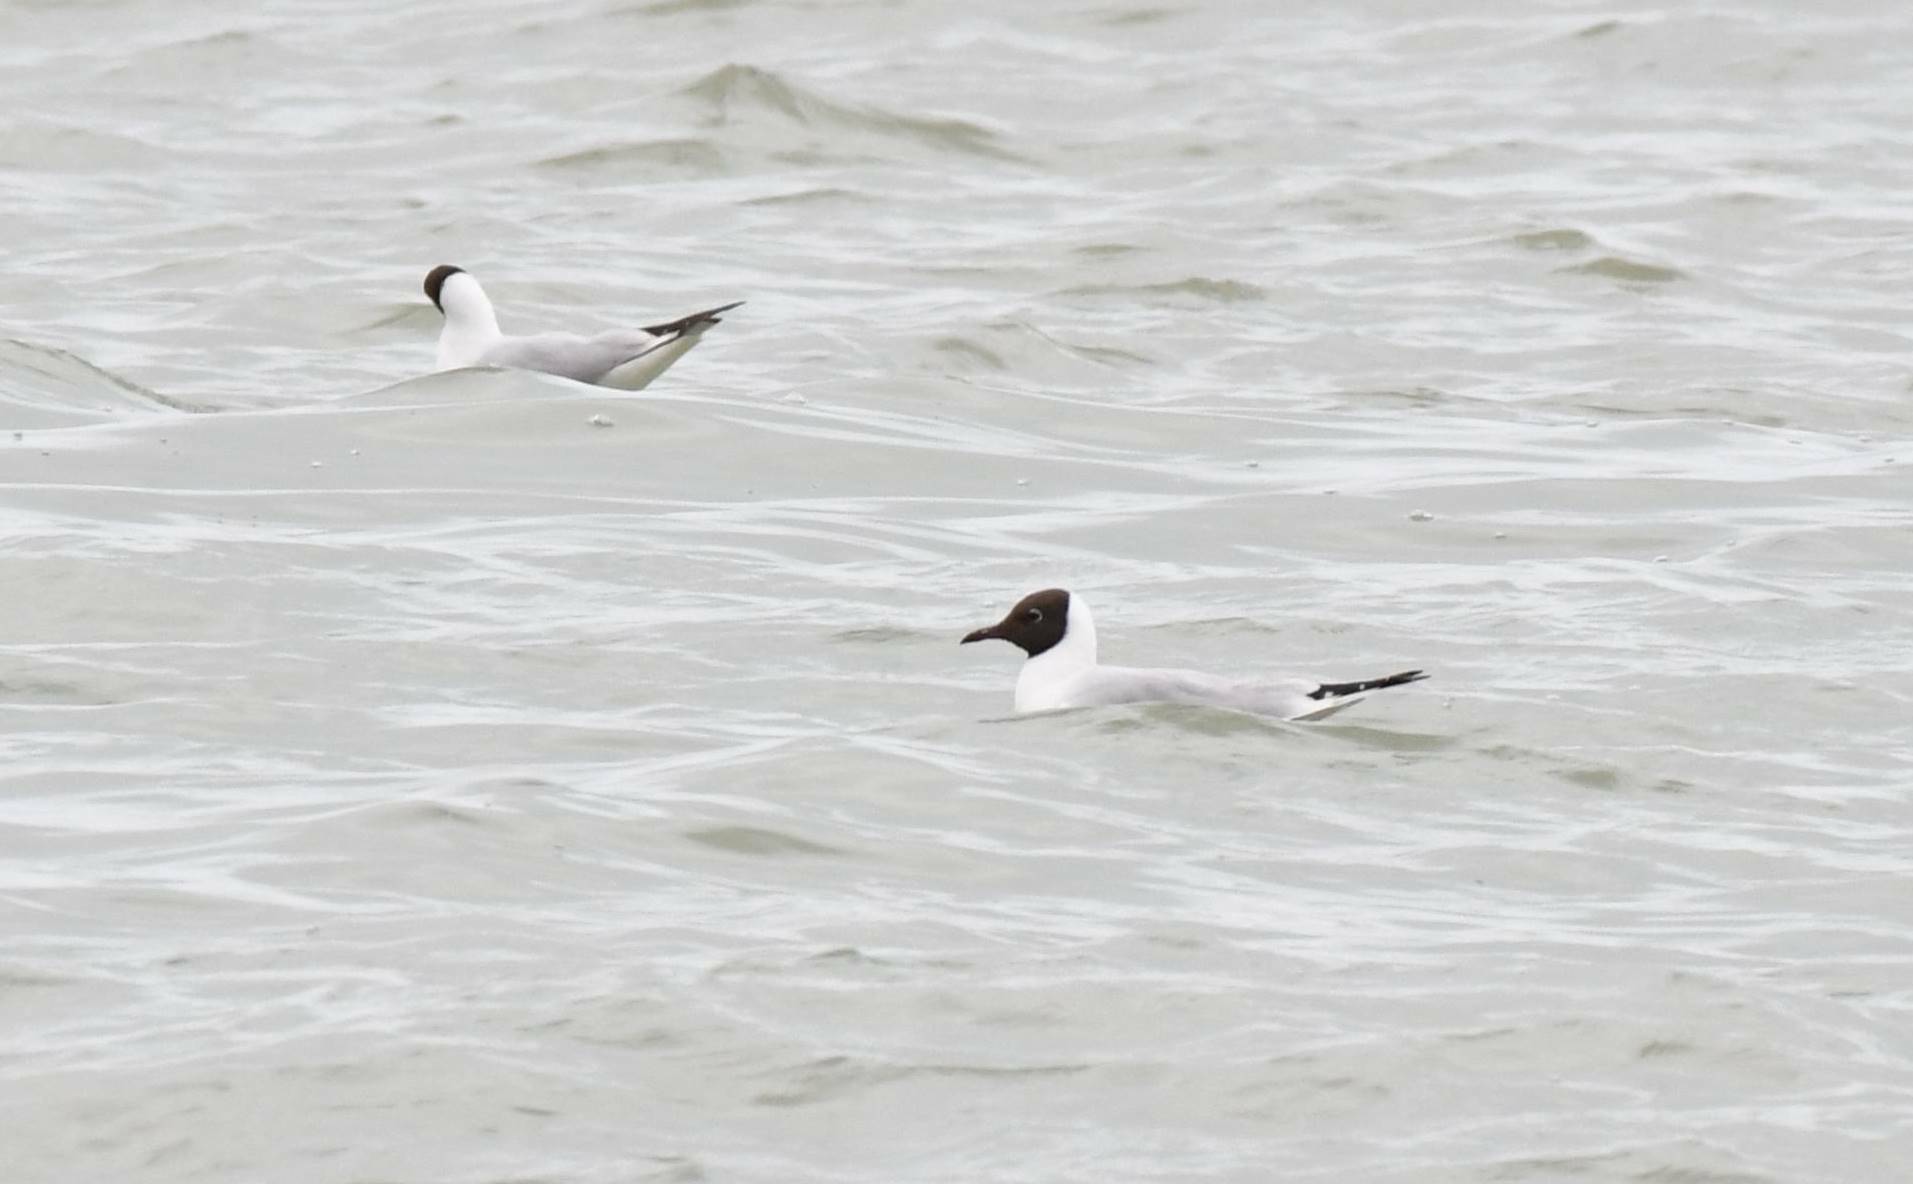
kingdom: Animalia
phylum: Chordata
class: Aves
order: Charadriiformes
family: Laridae
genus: Chroicocephalus
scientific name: Chroicocephalus ridibundus
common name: Black-headed gull
